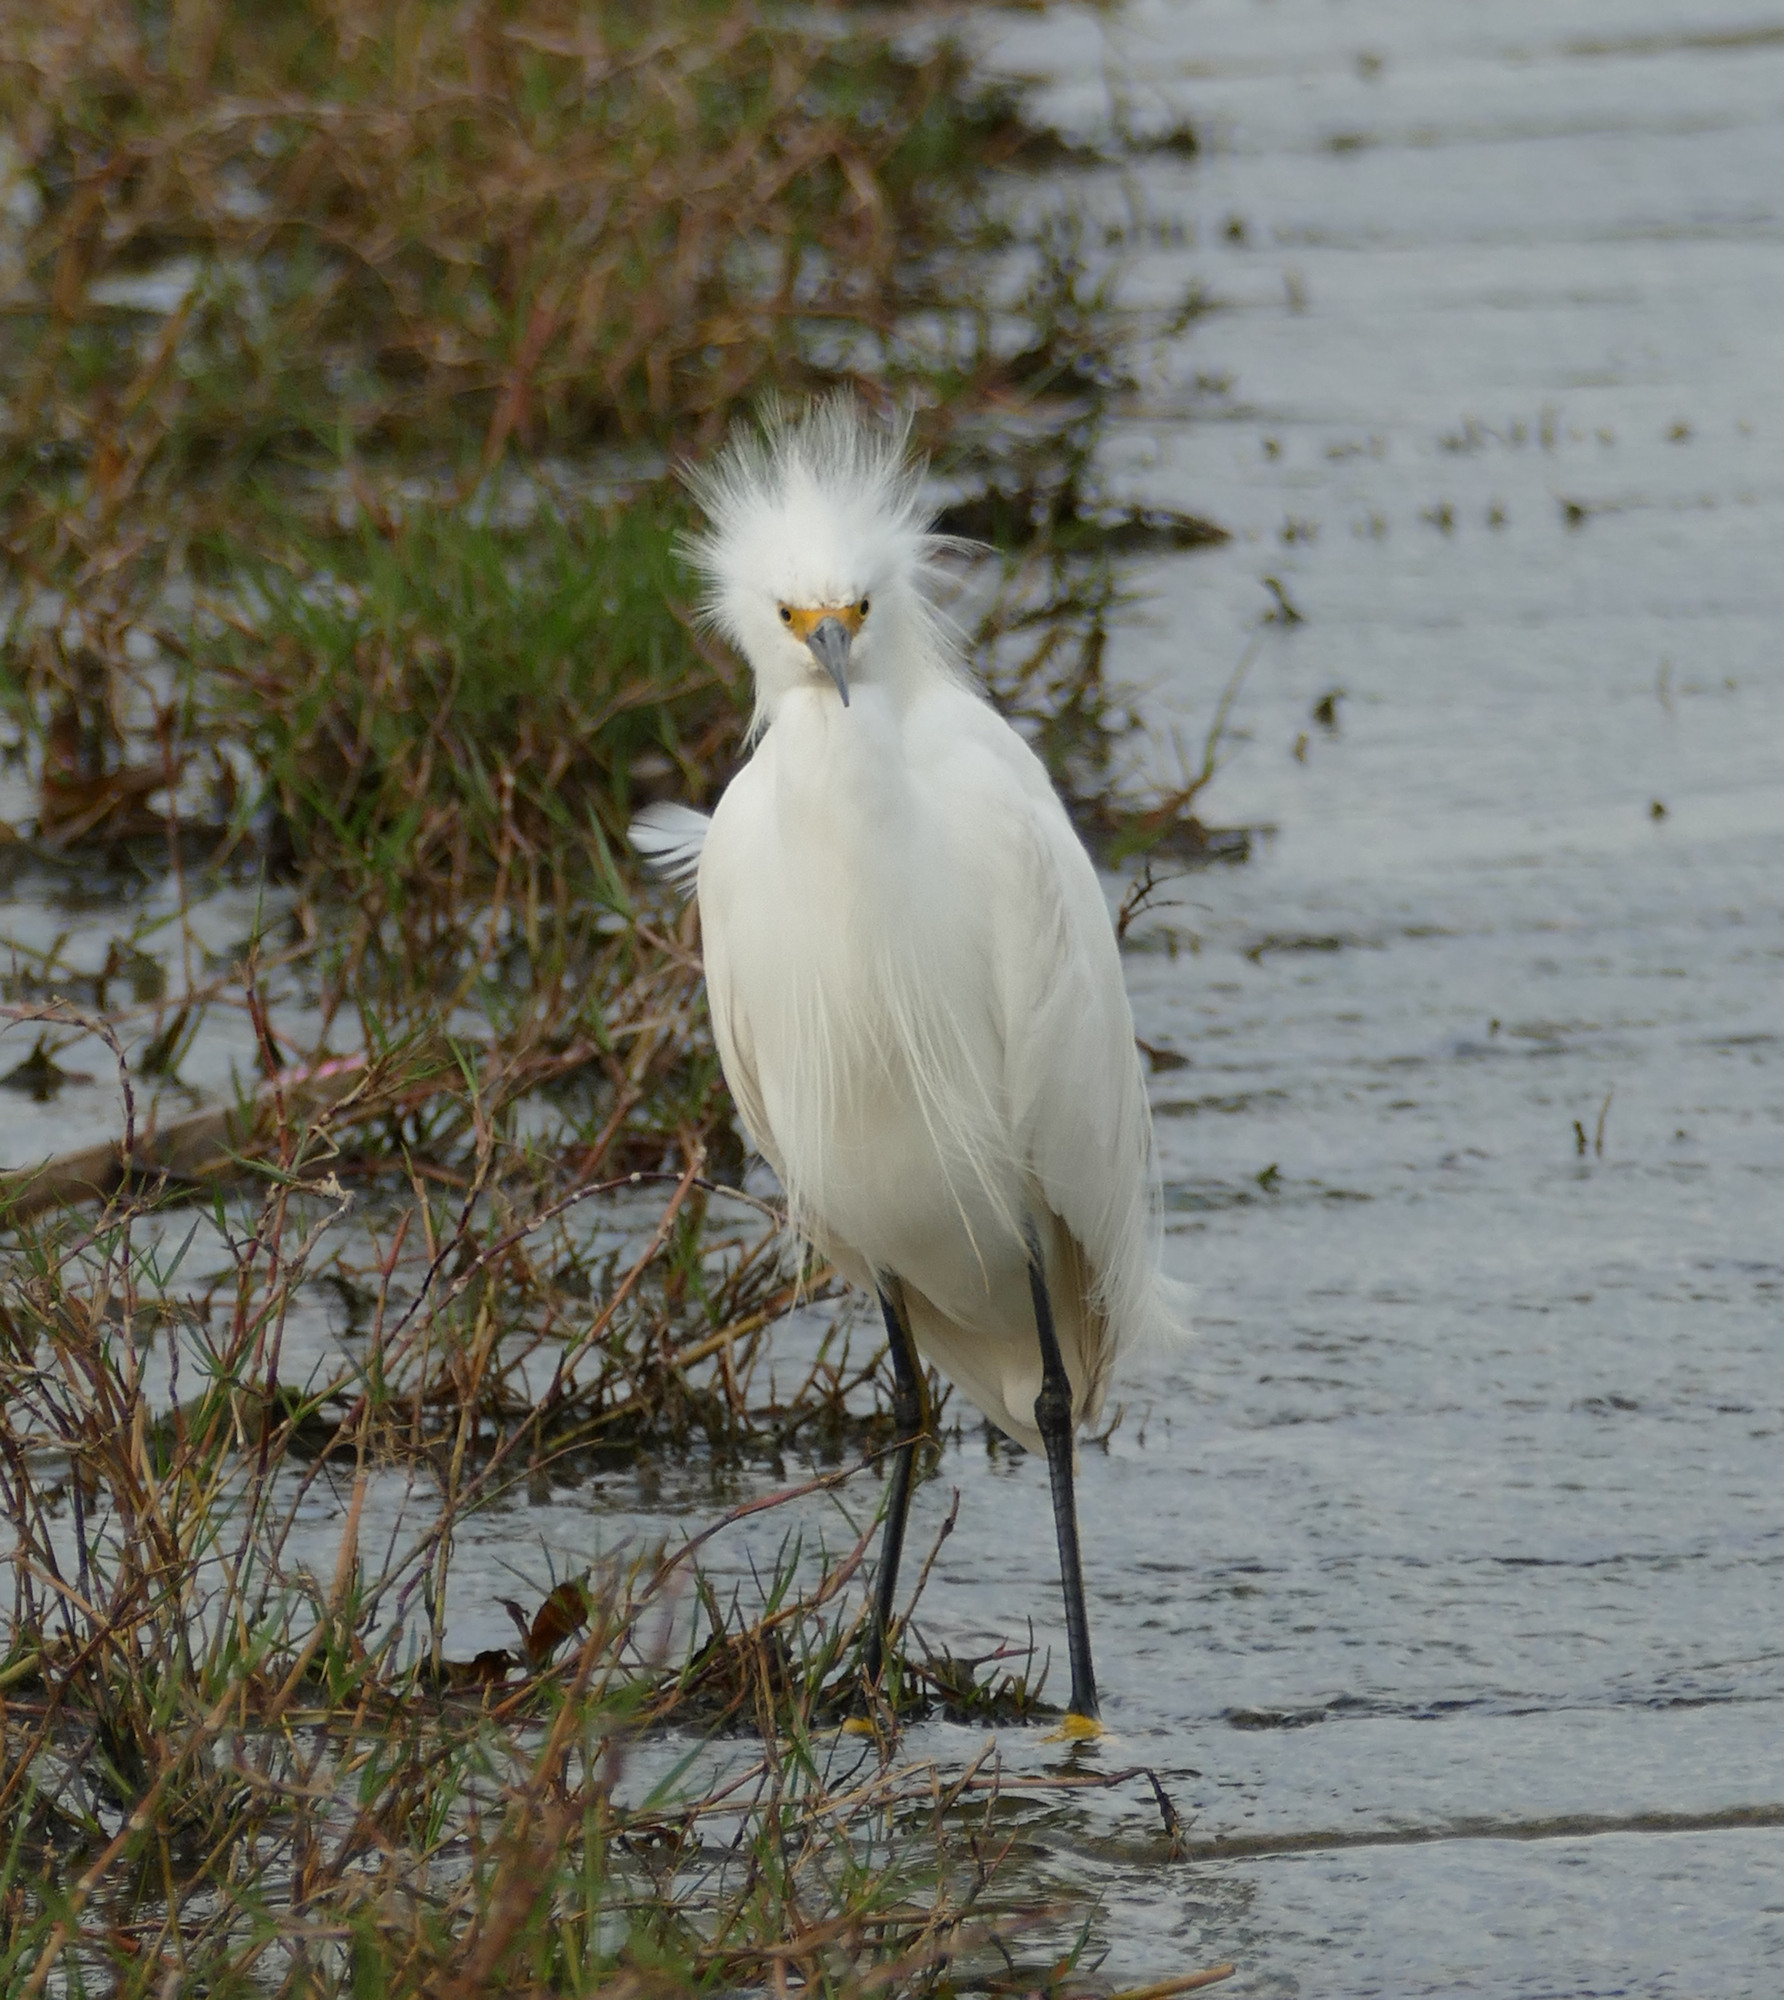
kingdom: Animalia
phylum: Chordata
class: Aves
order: Pelecaniformes
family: Ardeidae
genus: Egretta
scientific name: Egretta thula
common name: Snowy egret
